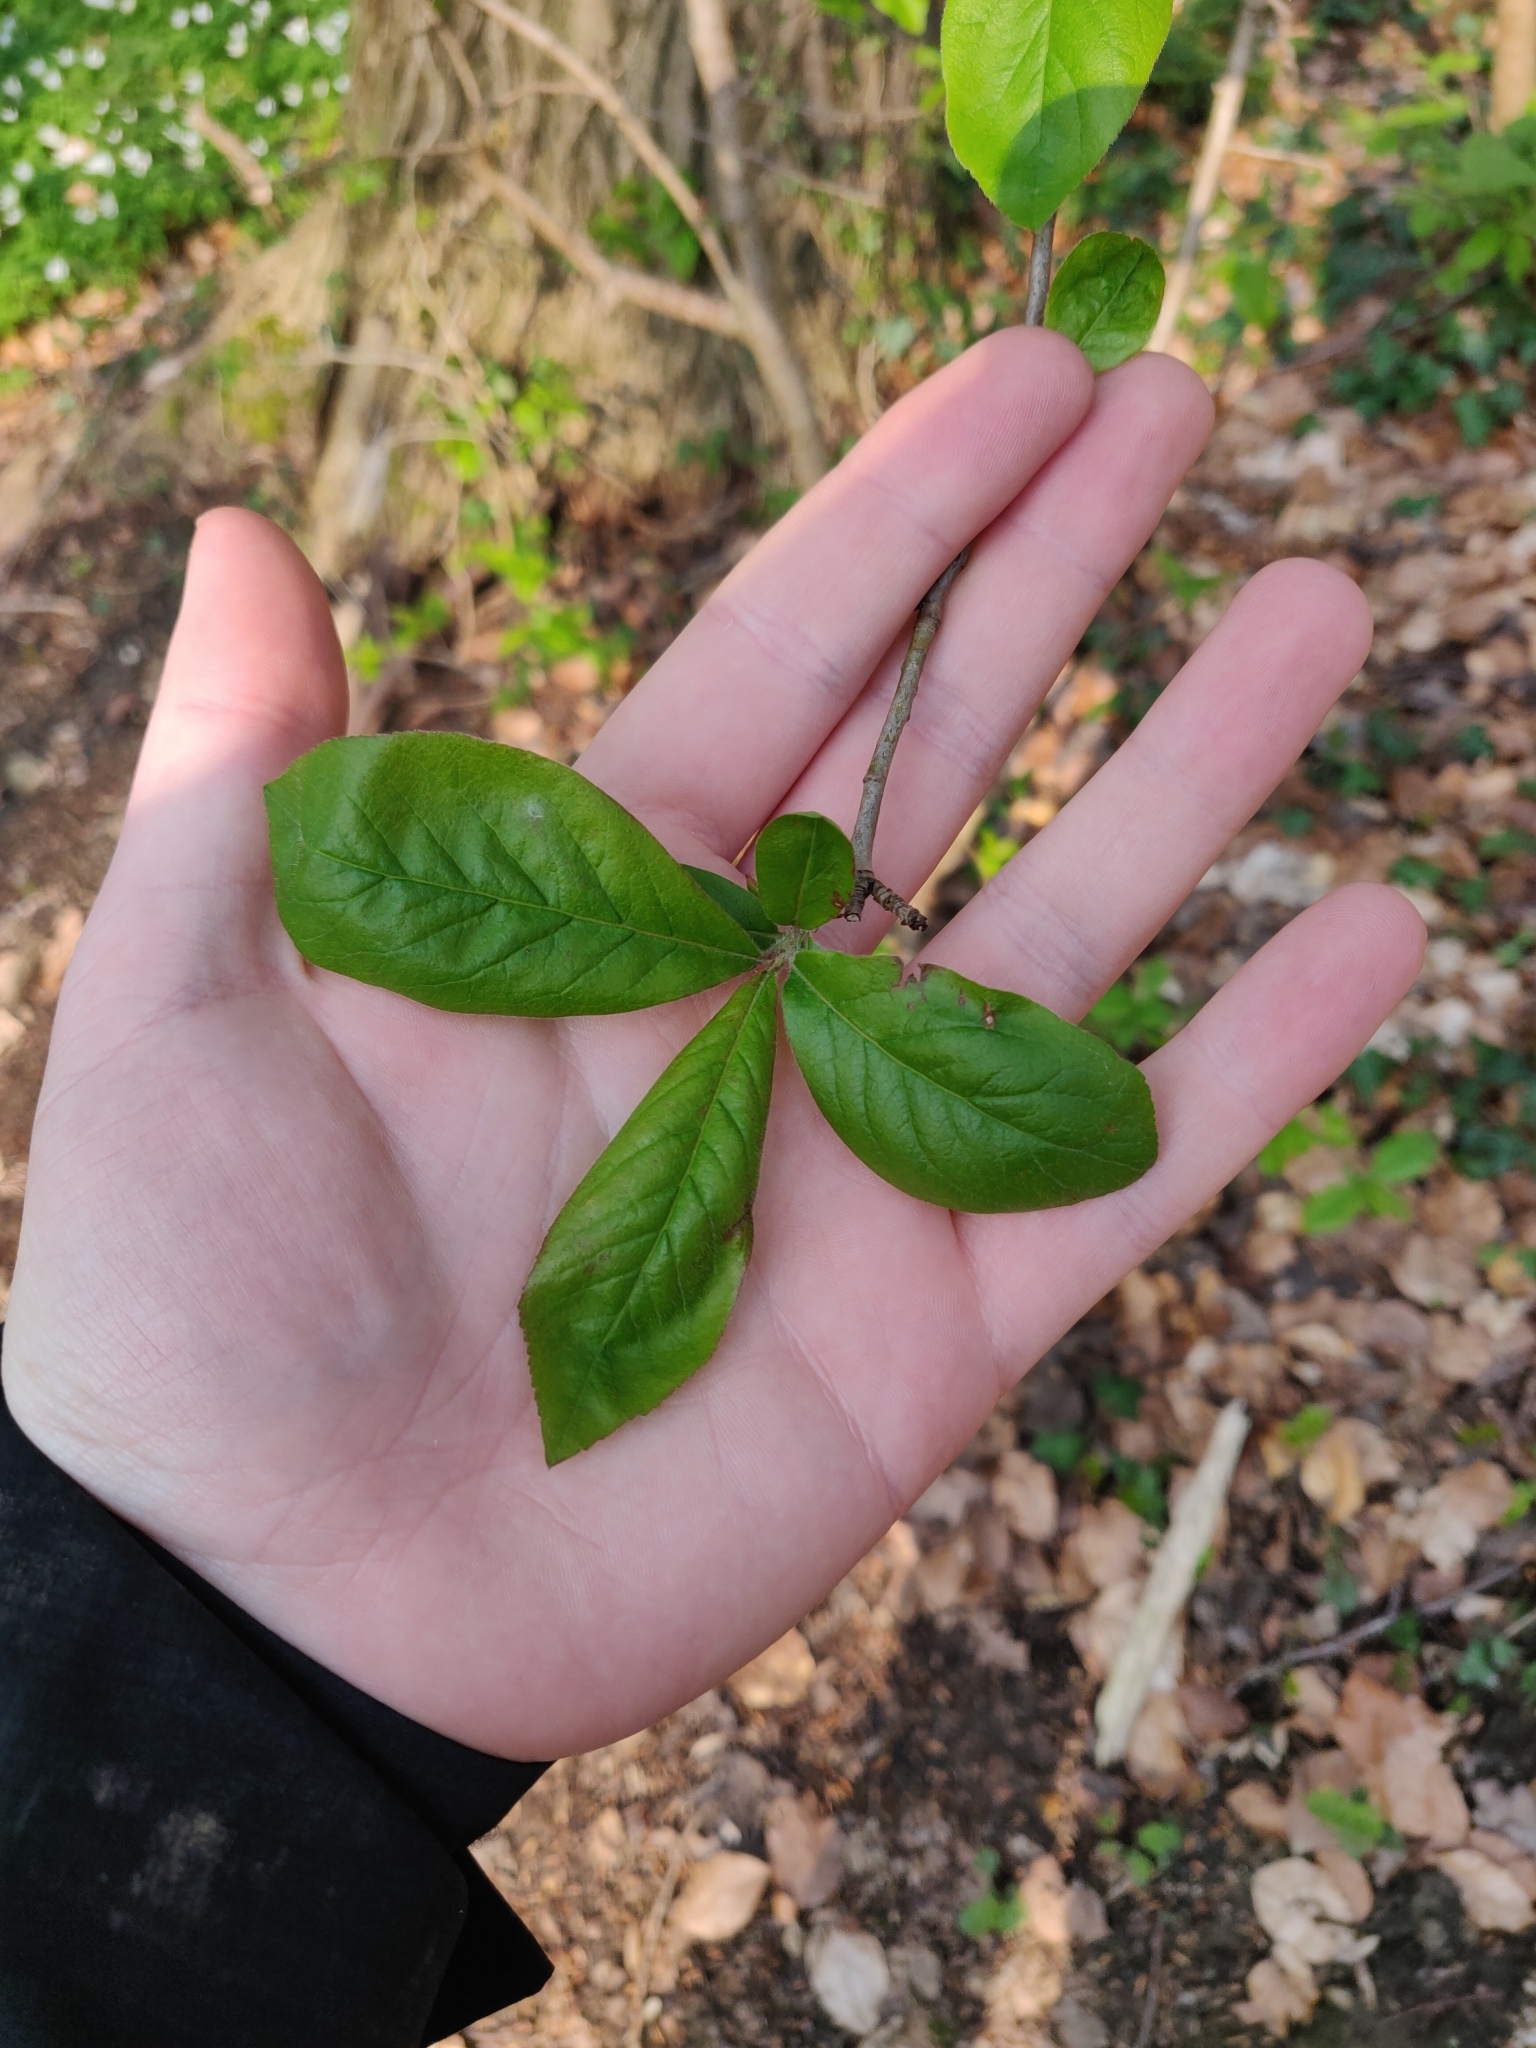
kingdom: Plantae
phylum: Tracheophyta
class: Magnoliopsida
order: Rosales
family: Rosaceae
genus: Mespilus
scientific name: Mespilus germanica
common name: Medlar
